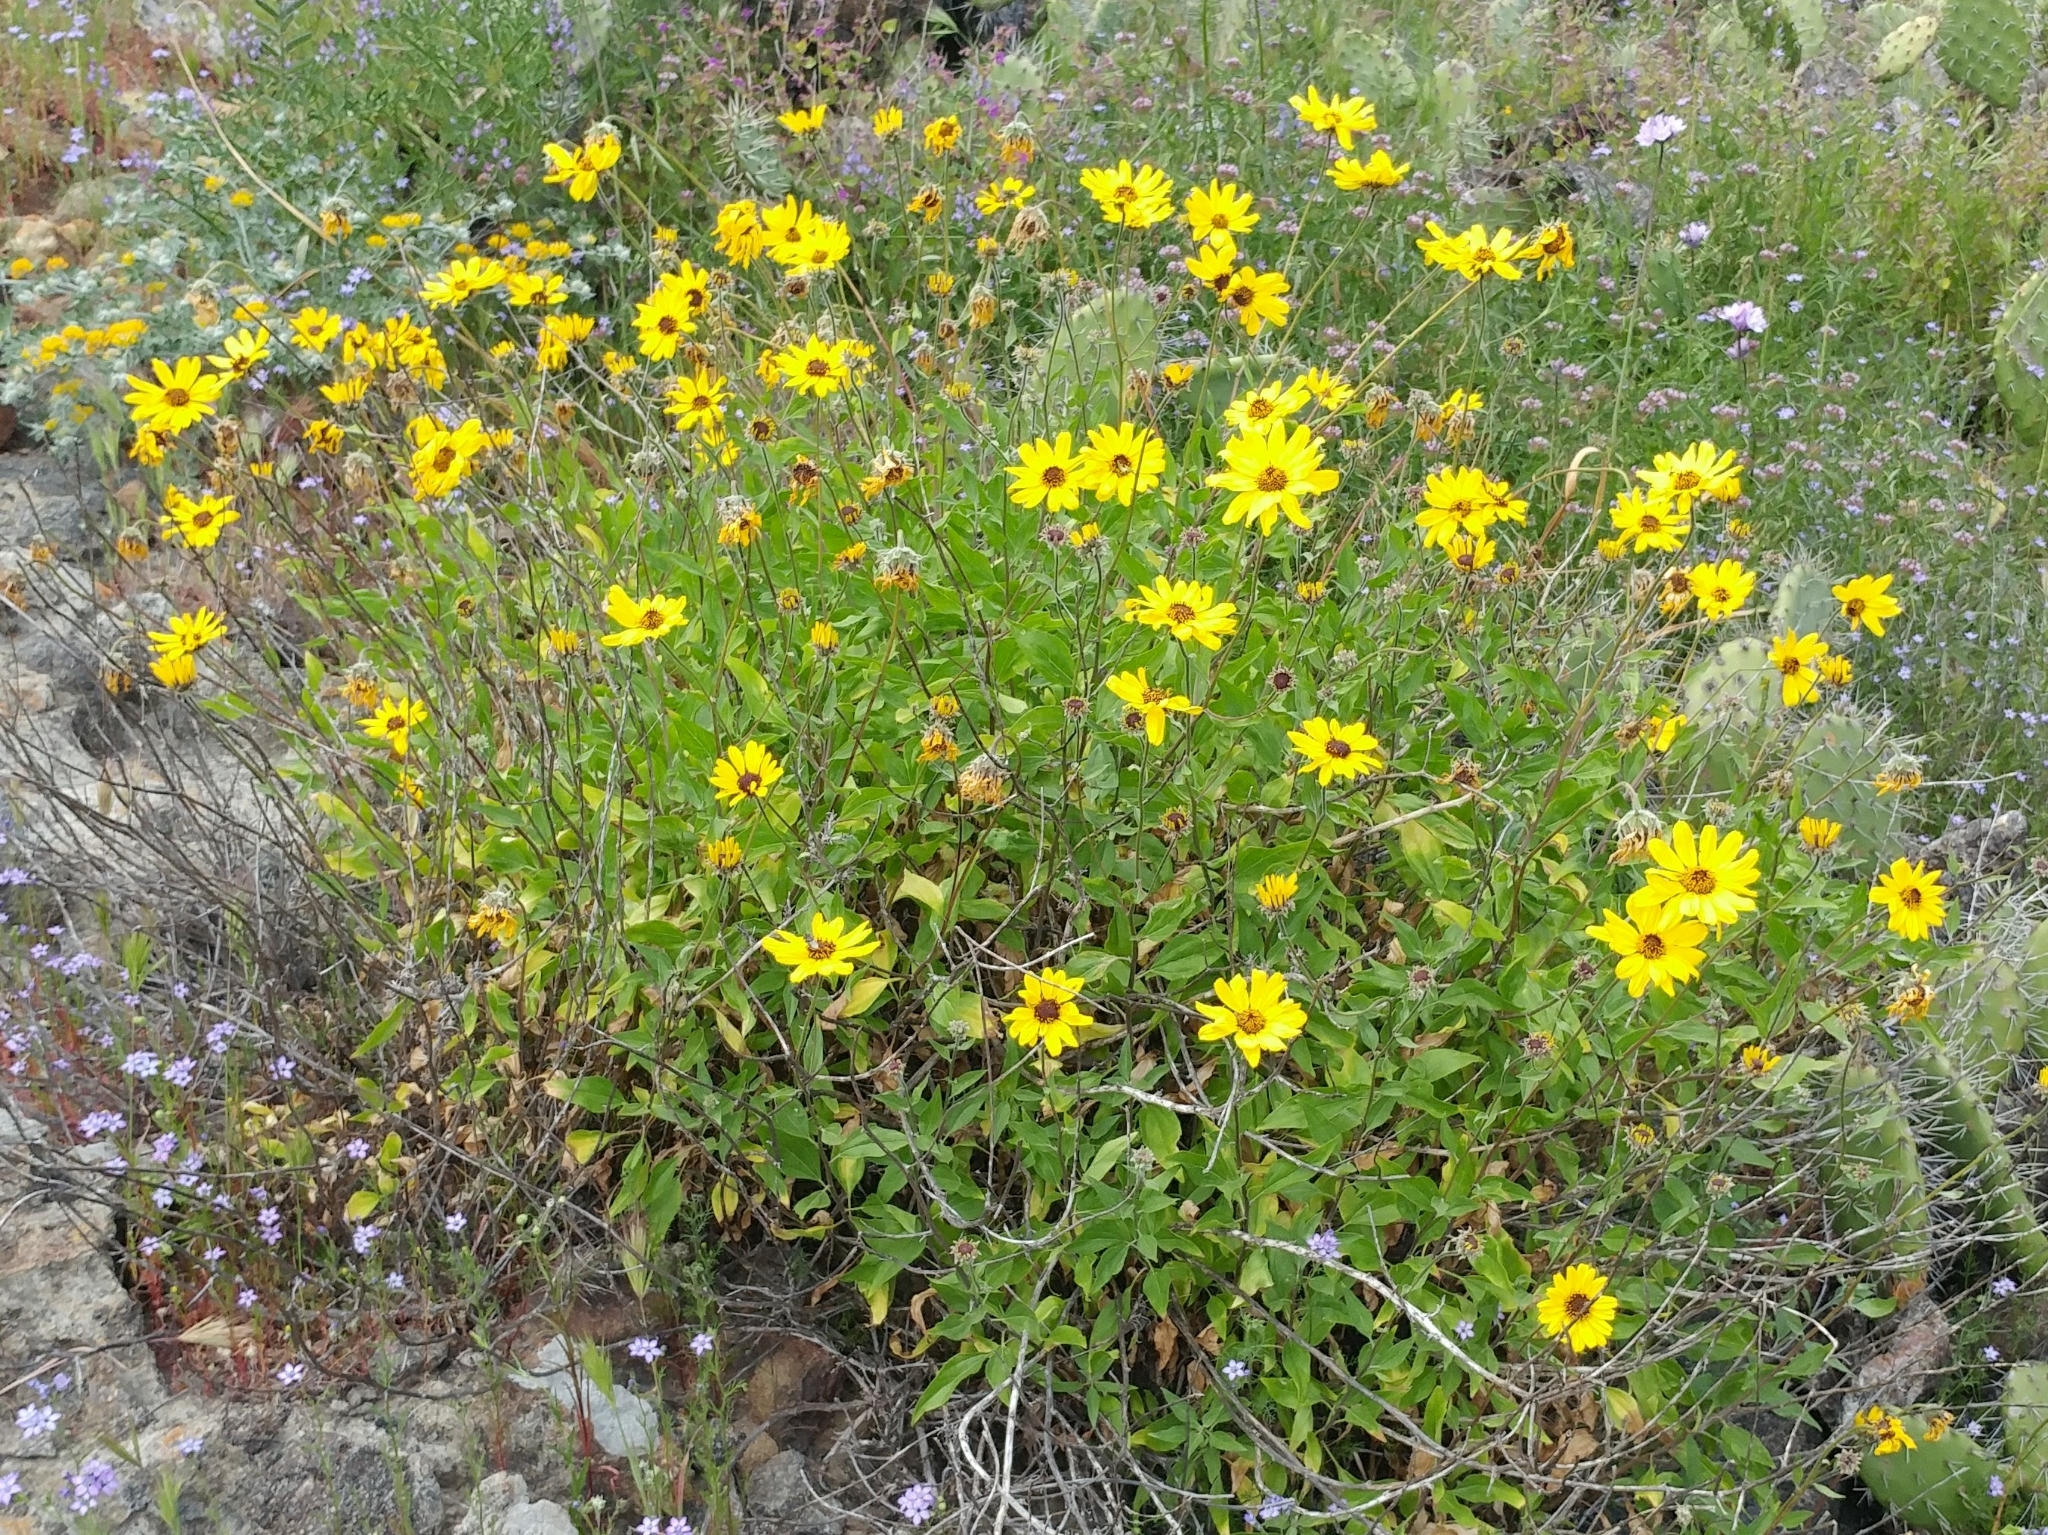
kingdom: Plantae
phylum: Tracheophyta
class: Magnoliopsida
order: Asterales
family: Asteraceae
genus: Encelia
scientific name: Encelia californica
